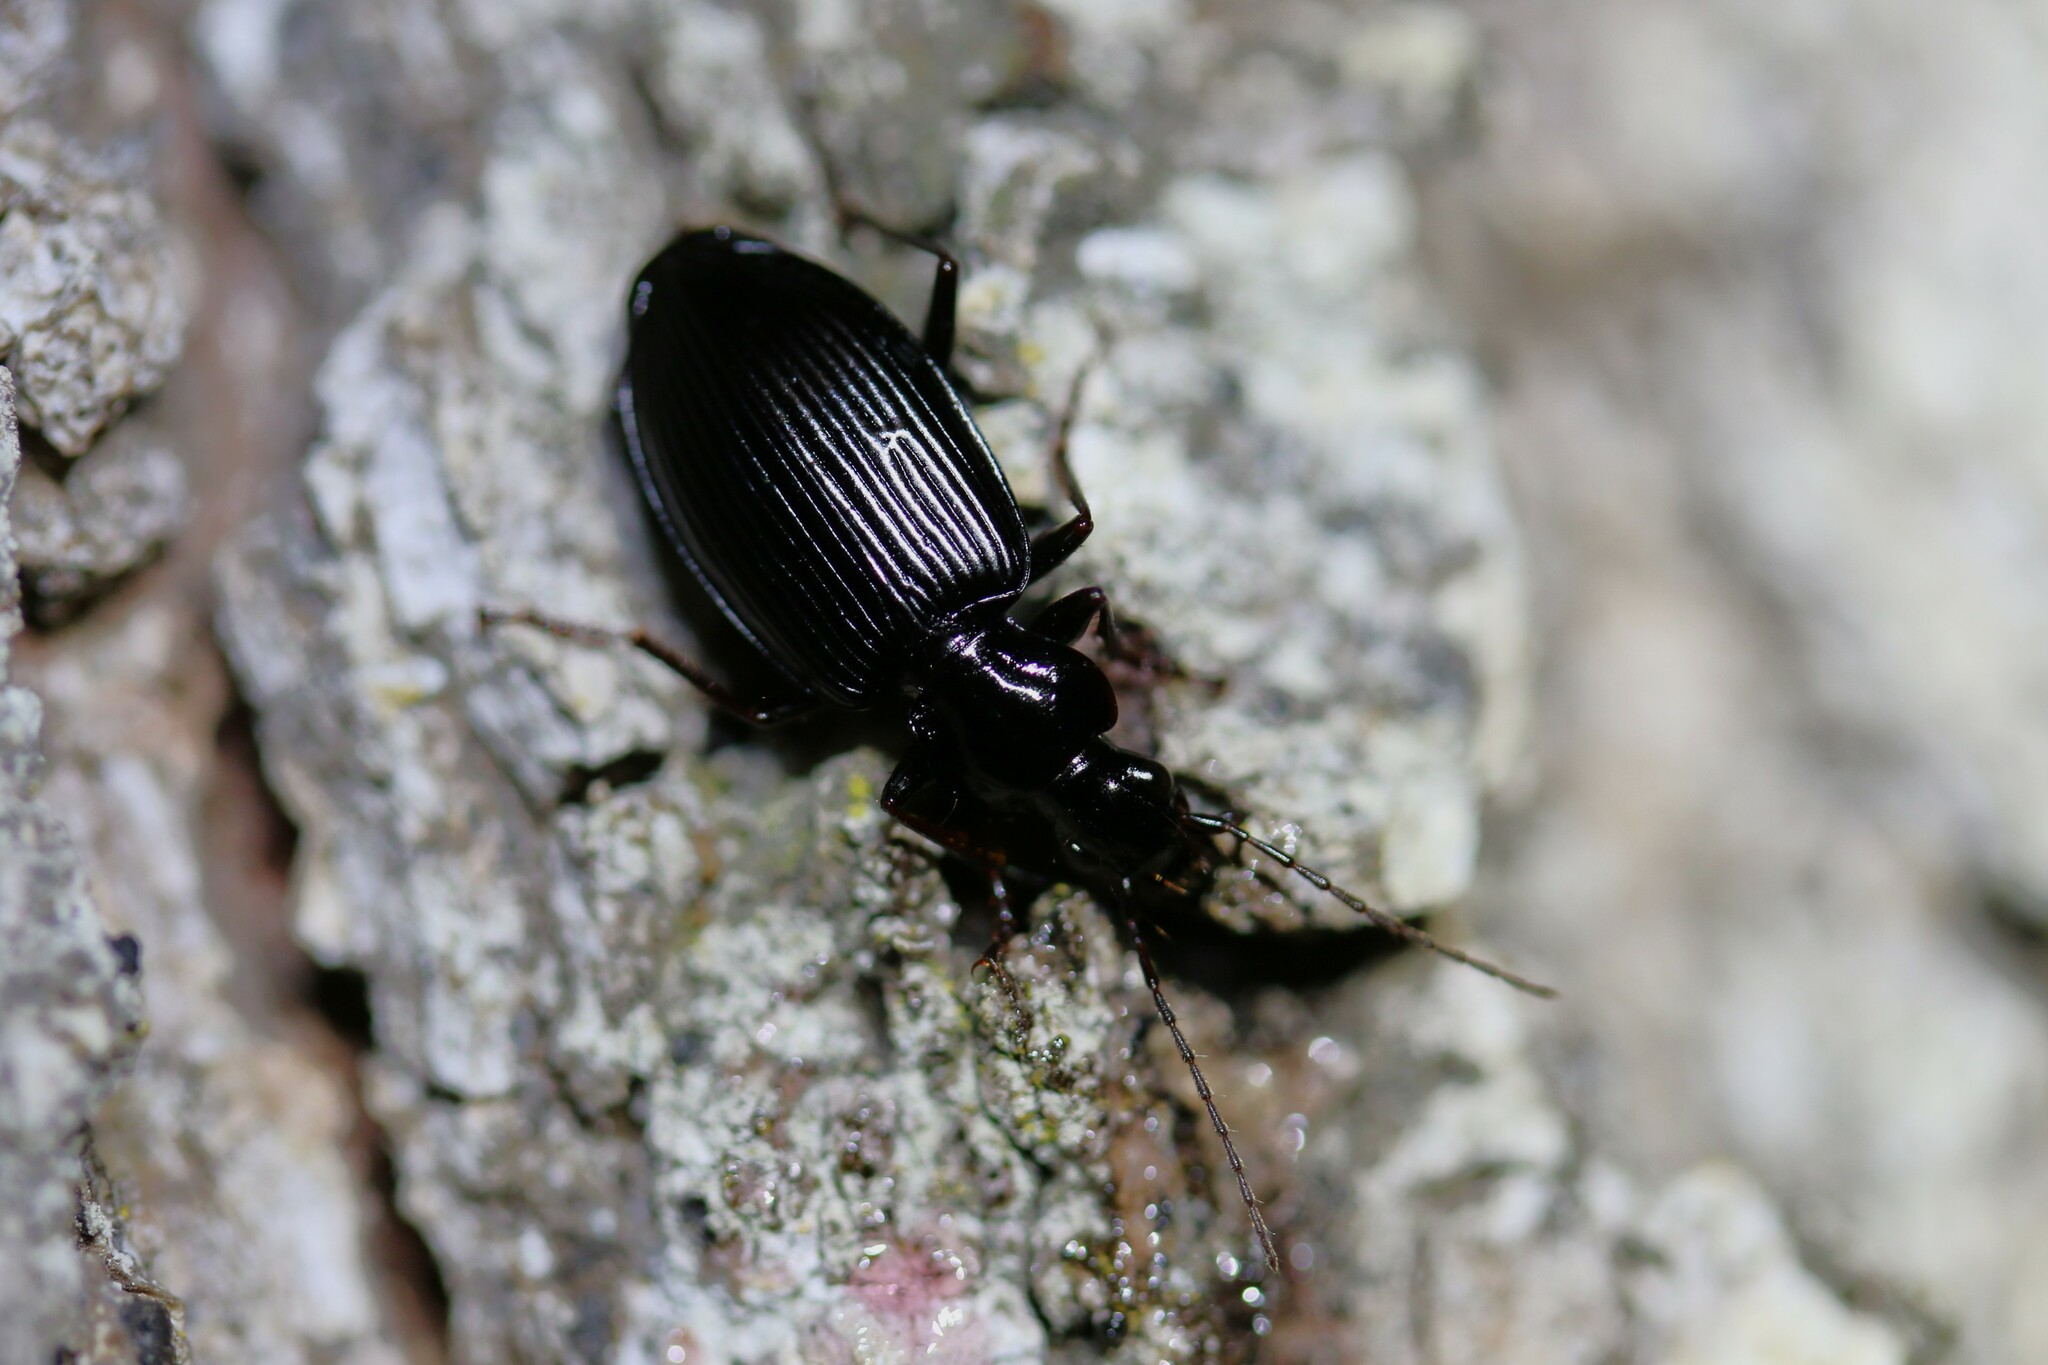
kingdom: Animalia
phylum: Arthropoda
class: Insecta
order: Coleoptera
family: Carabidae
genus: Platynus
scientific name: Platynus assimilis
